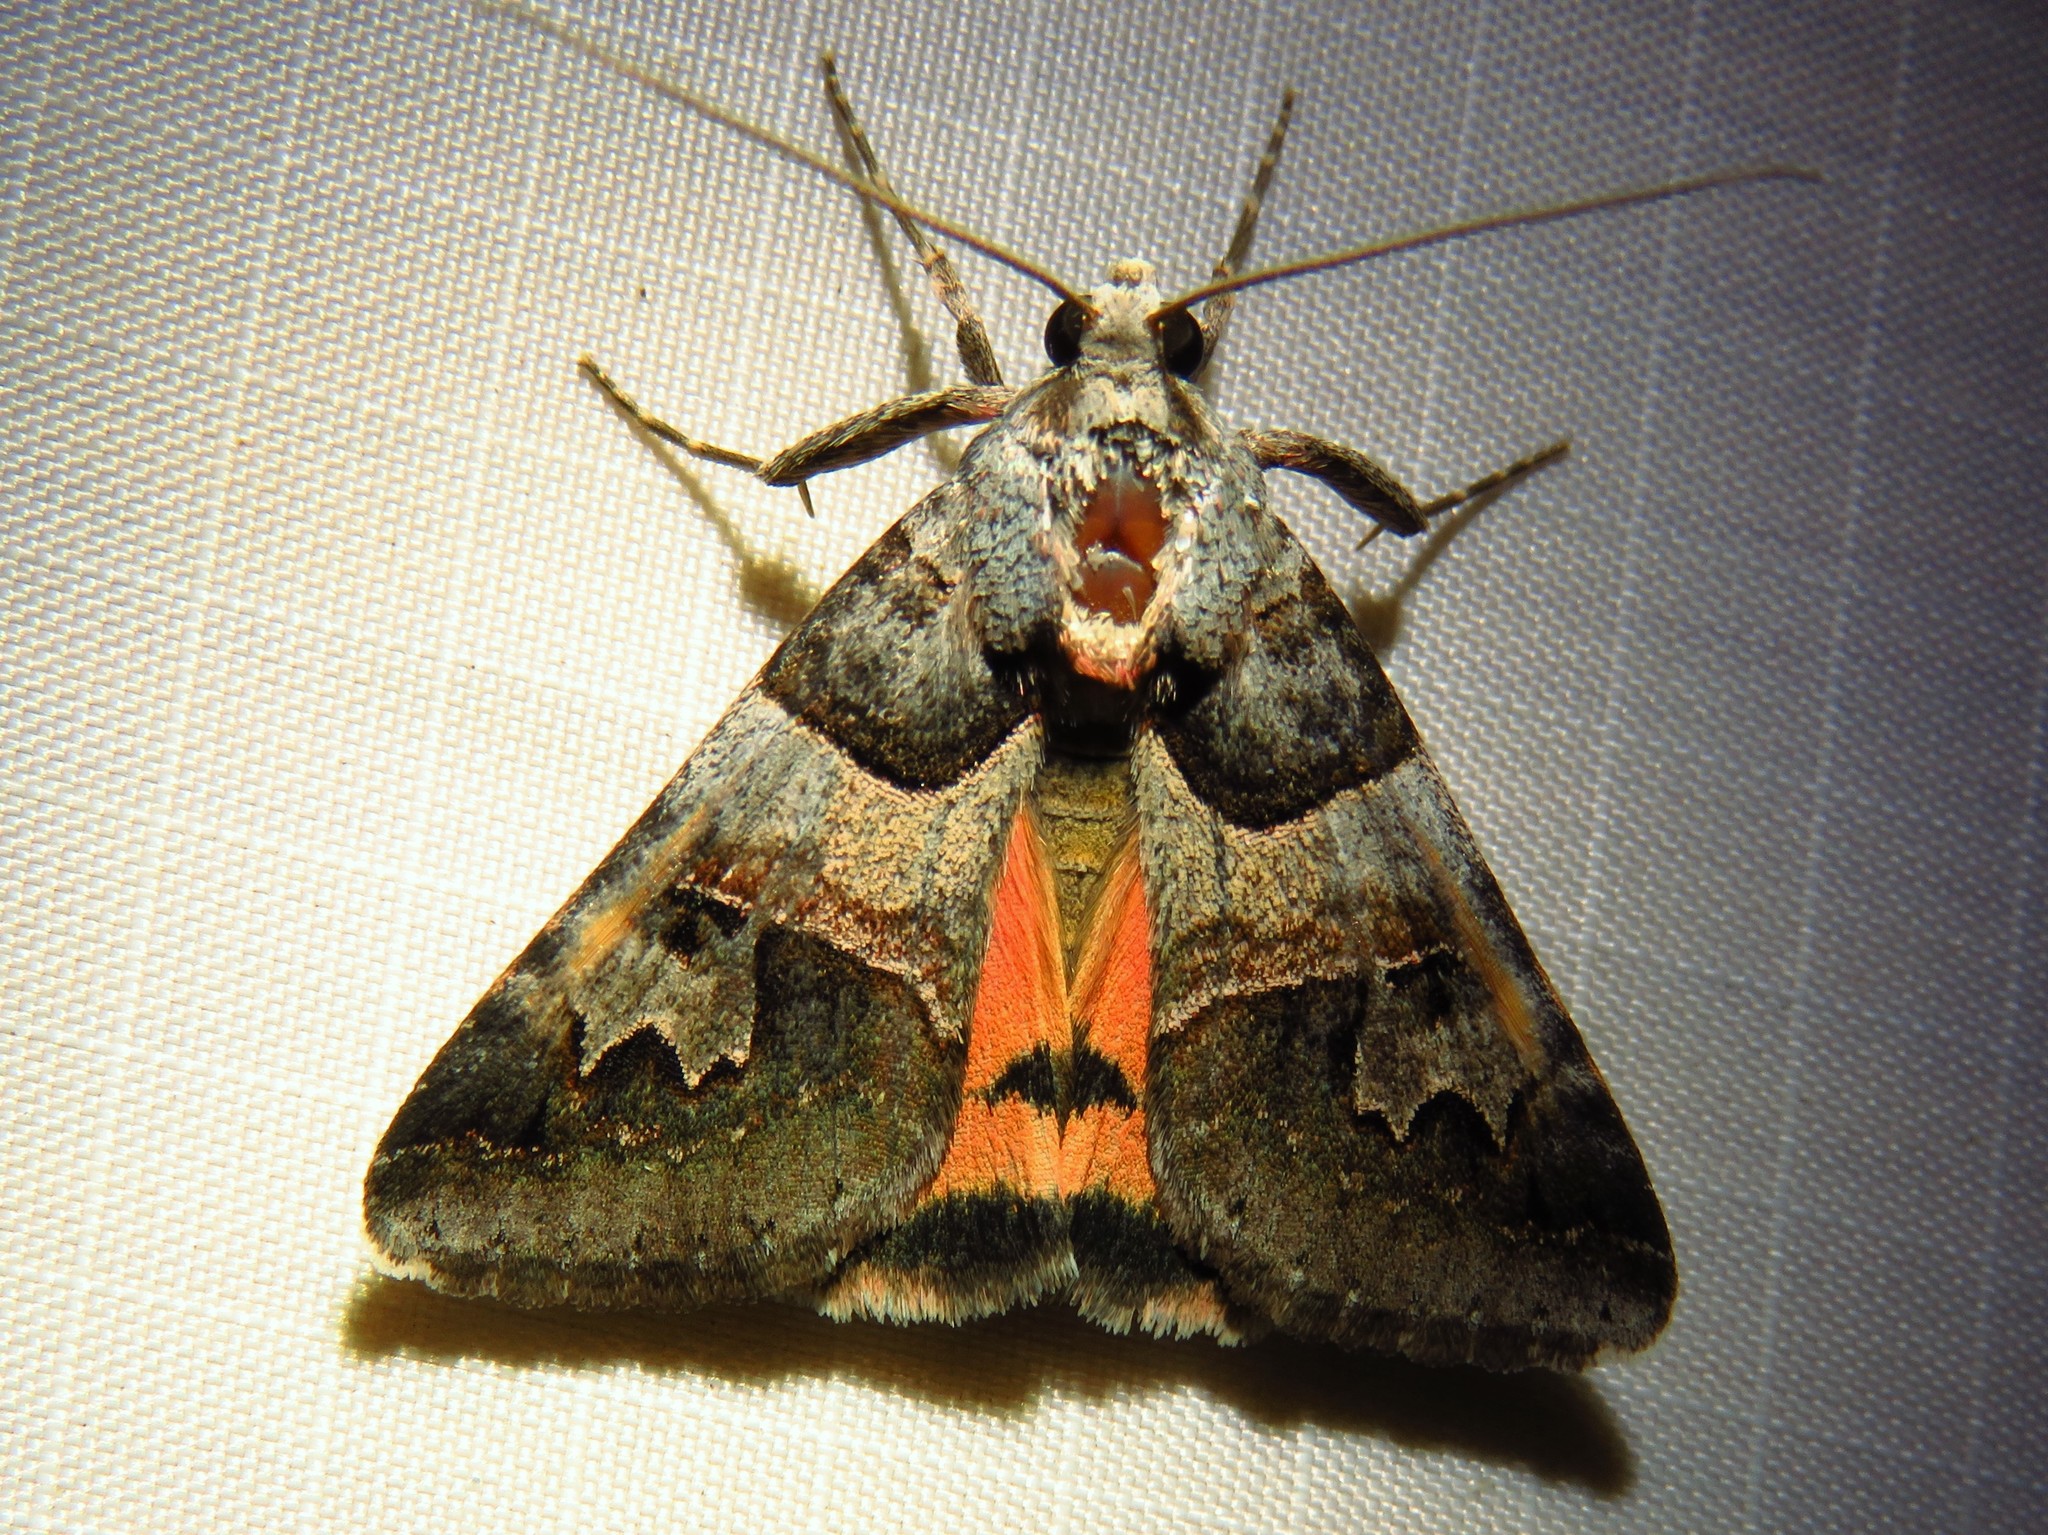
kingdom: Animalia
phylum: Arthropoda
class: Insecta
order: Lepidoptera
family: Erebidae
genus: Drasteria
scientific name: Drasteria ingeniculata
